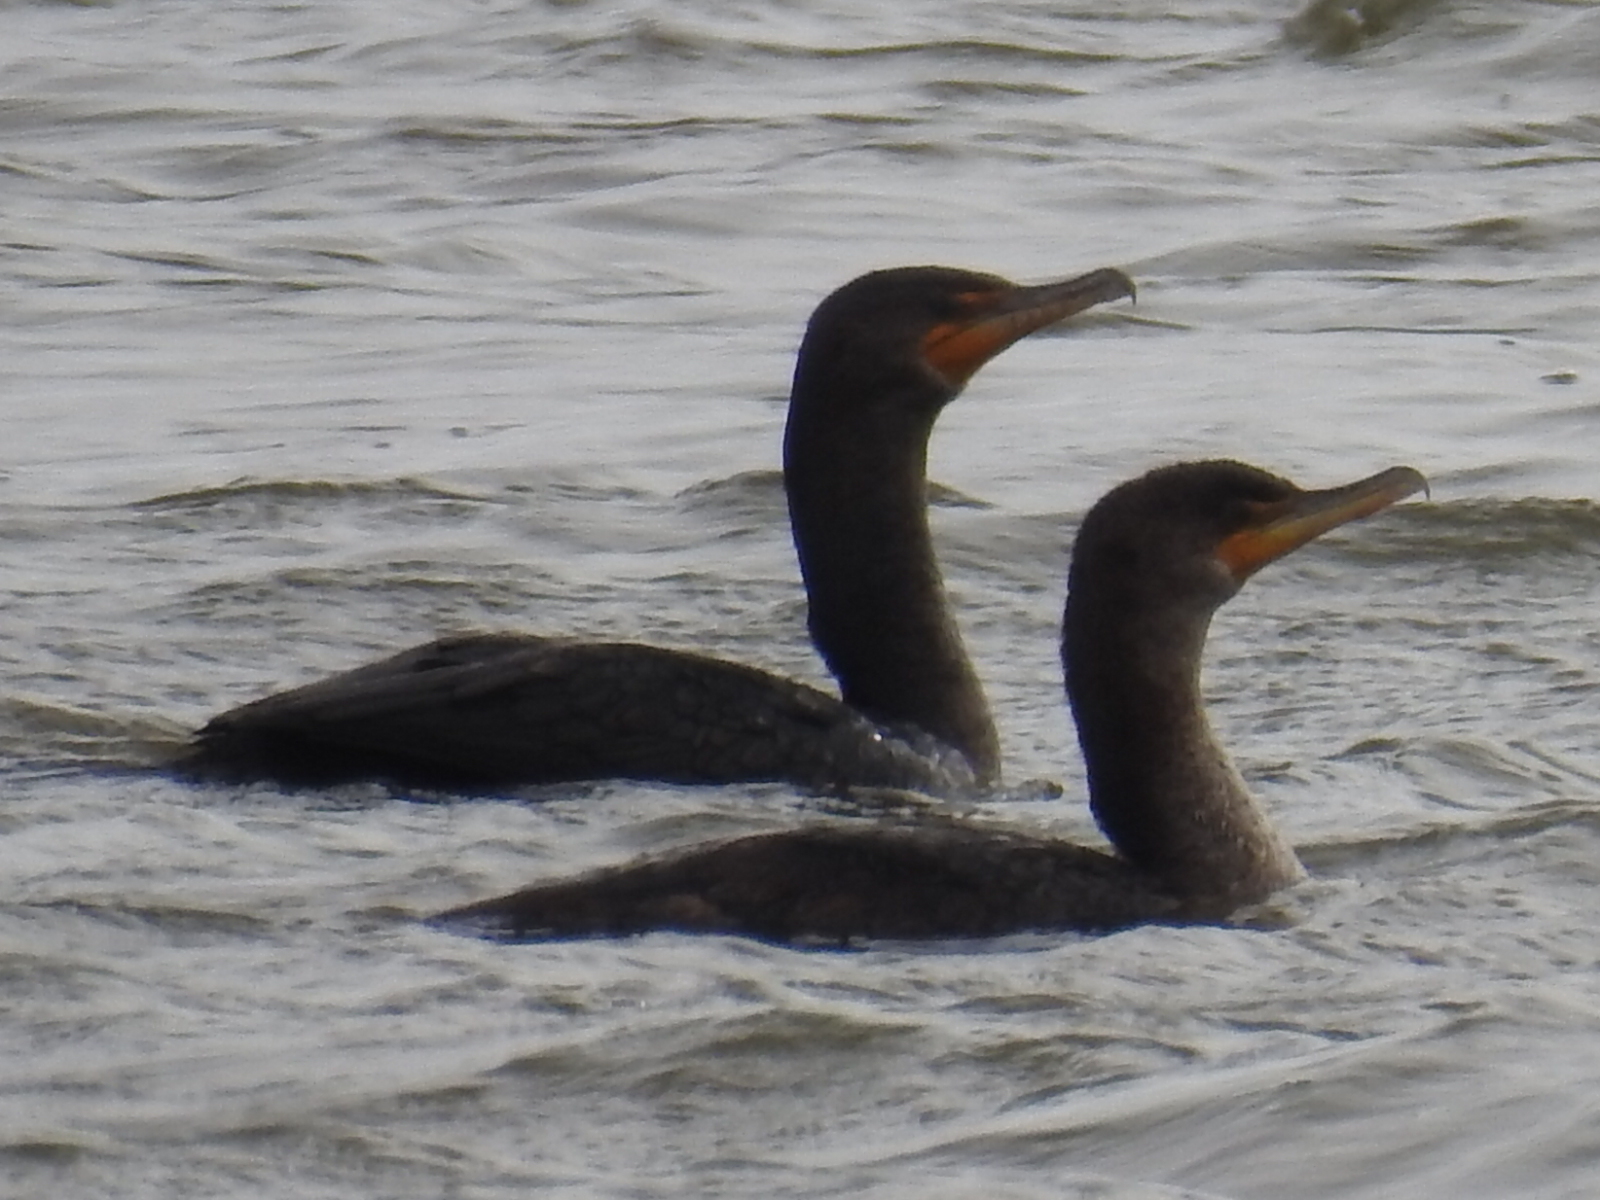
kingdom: Animalia
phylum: Chordata
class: Aves
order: Suliformes
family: Phalacrocoracidae
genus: Phalacrocorax
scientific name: Phalacrocorax auritus
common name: Double-crested cormorant
